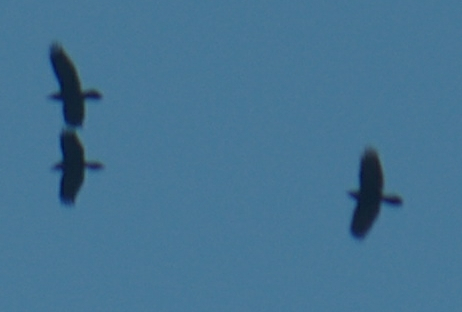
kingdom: Animalia
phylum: Chordata
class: Aves
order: Passeriformes
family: Corvidae
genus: Corvus
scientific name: Corvus corax
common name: Common raven
